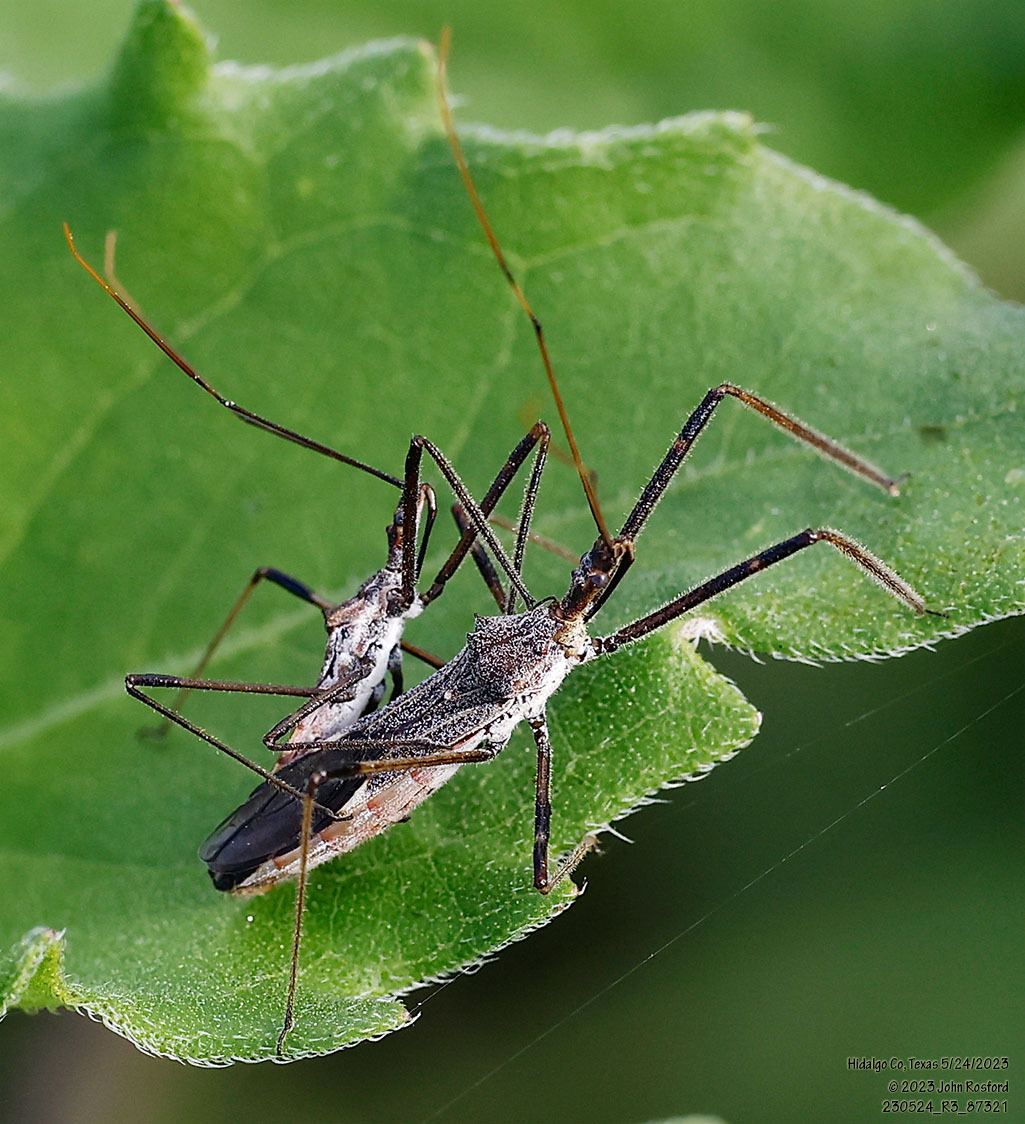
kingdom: Animalia
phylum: Arthropoda
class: Insecta
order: Hemiptera
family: Reduviidae
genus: Zelus
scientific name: Zelus tetracanthus
